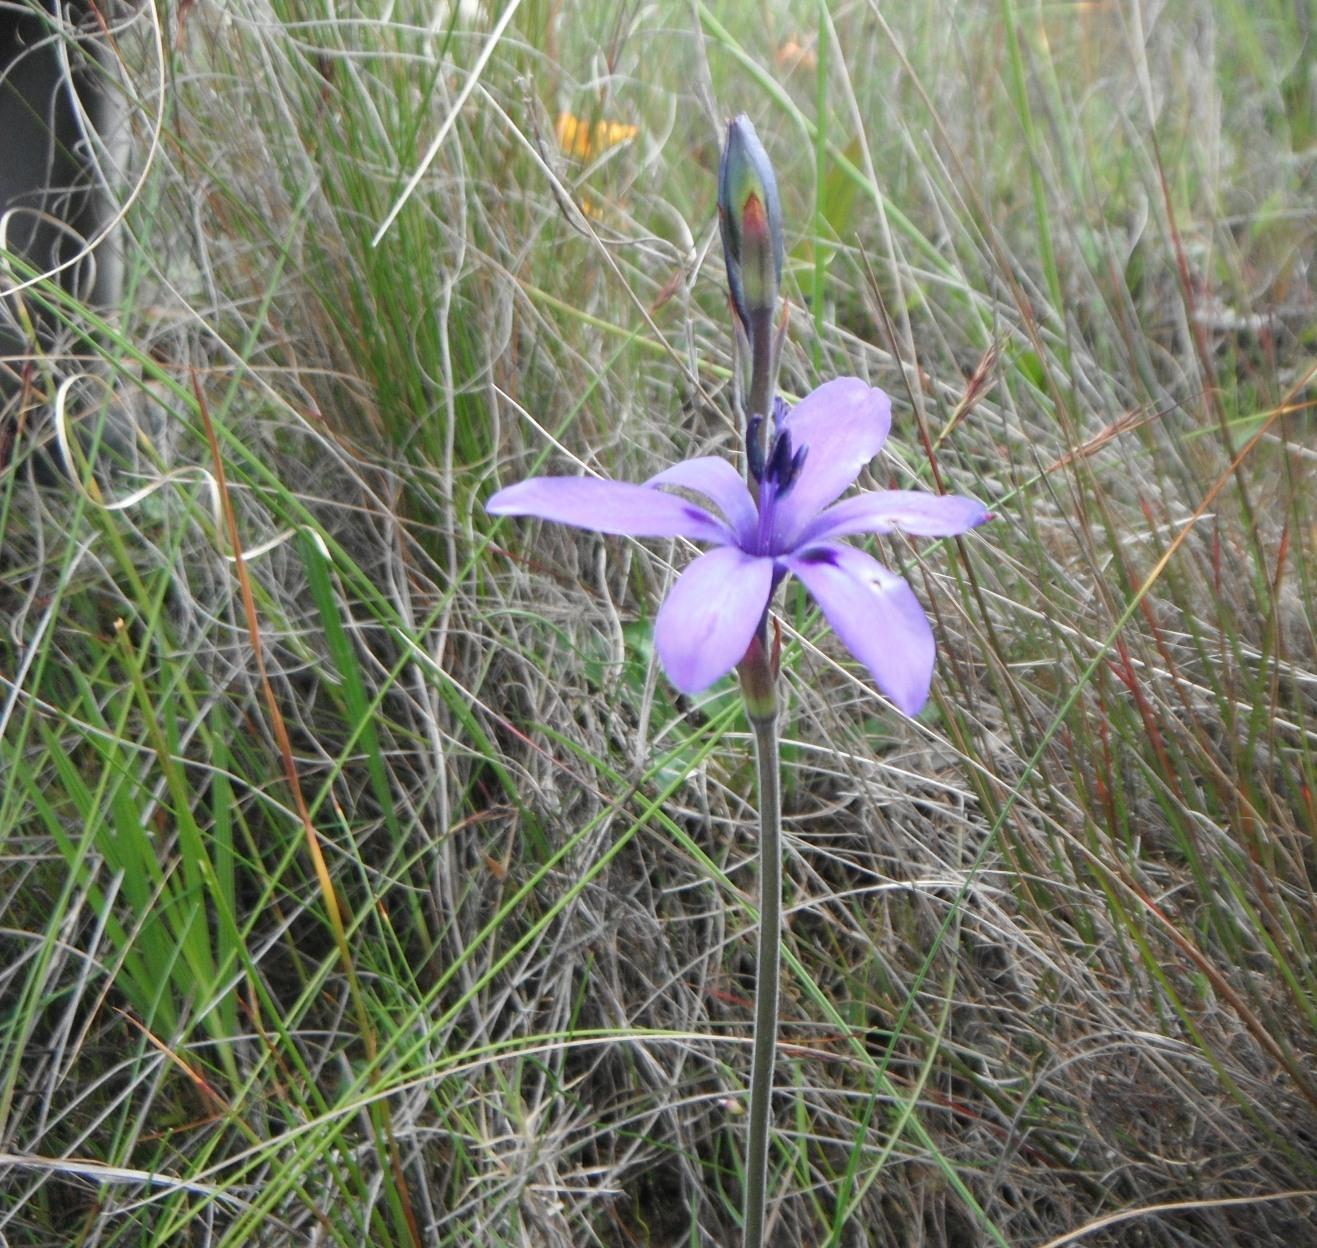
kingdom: Plantae
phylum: Tracheophyta
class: Liliopsida
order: Asparagales
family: Iridaceae
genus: Babiana
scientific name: Babiana nervosa
